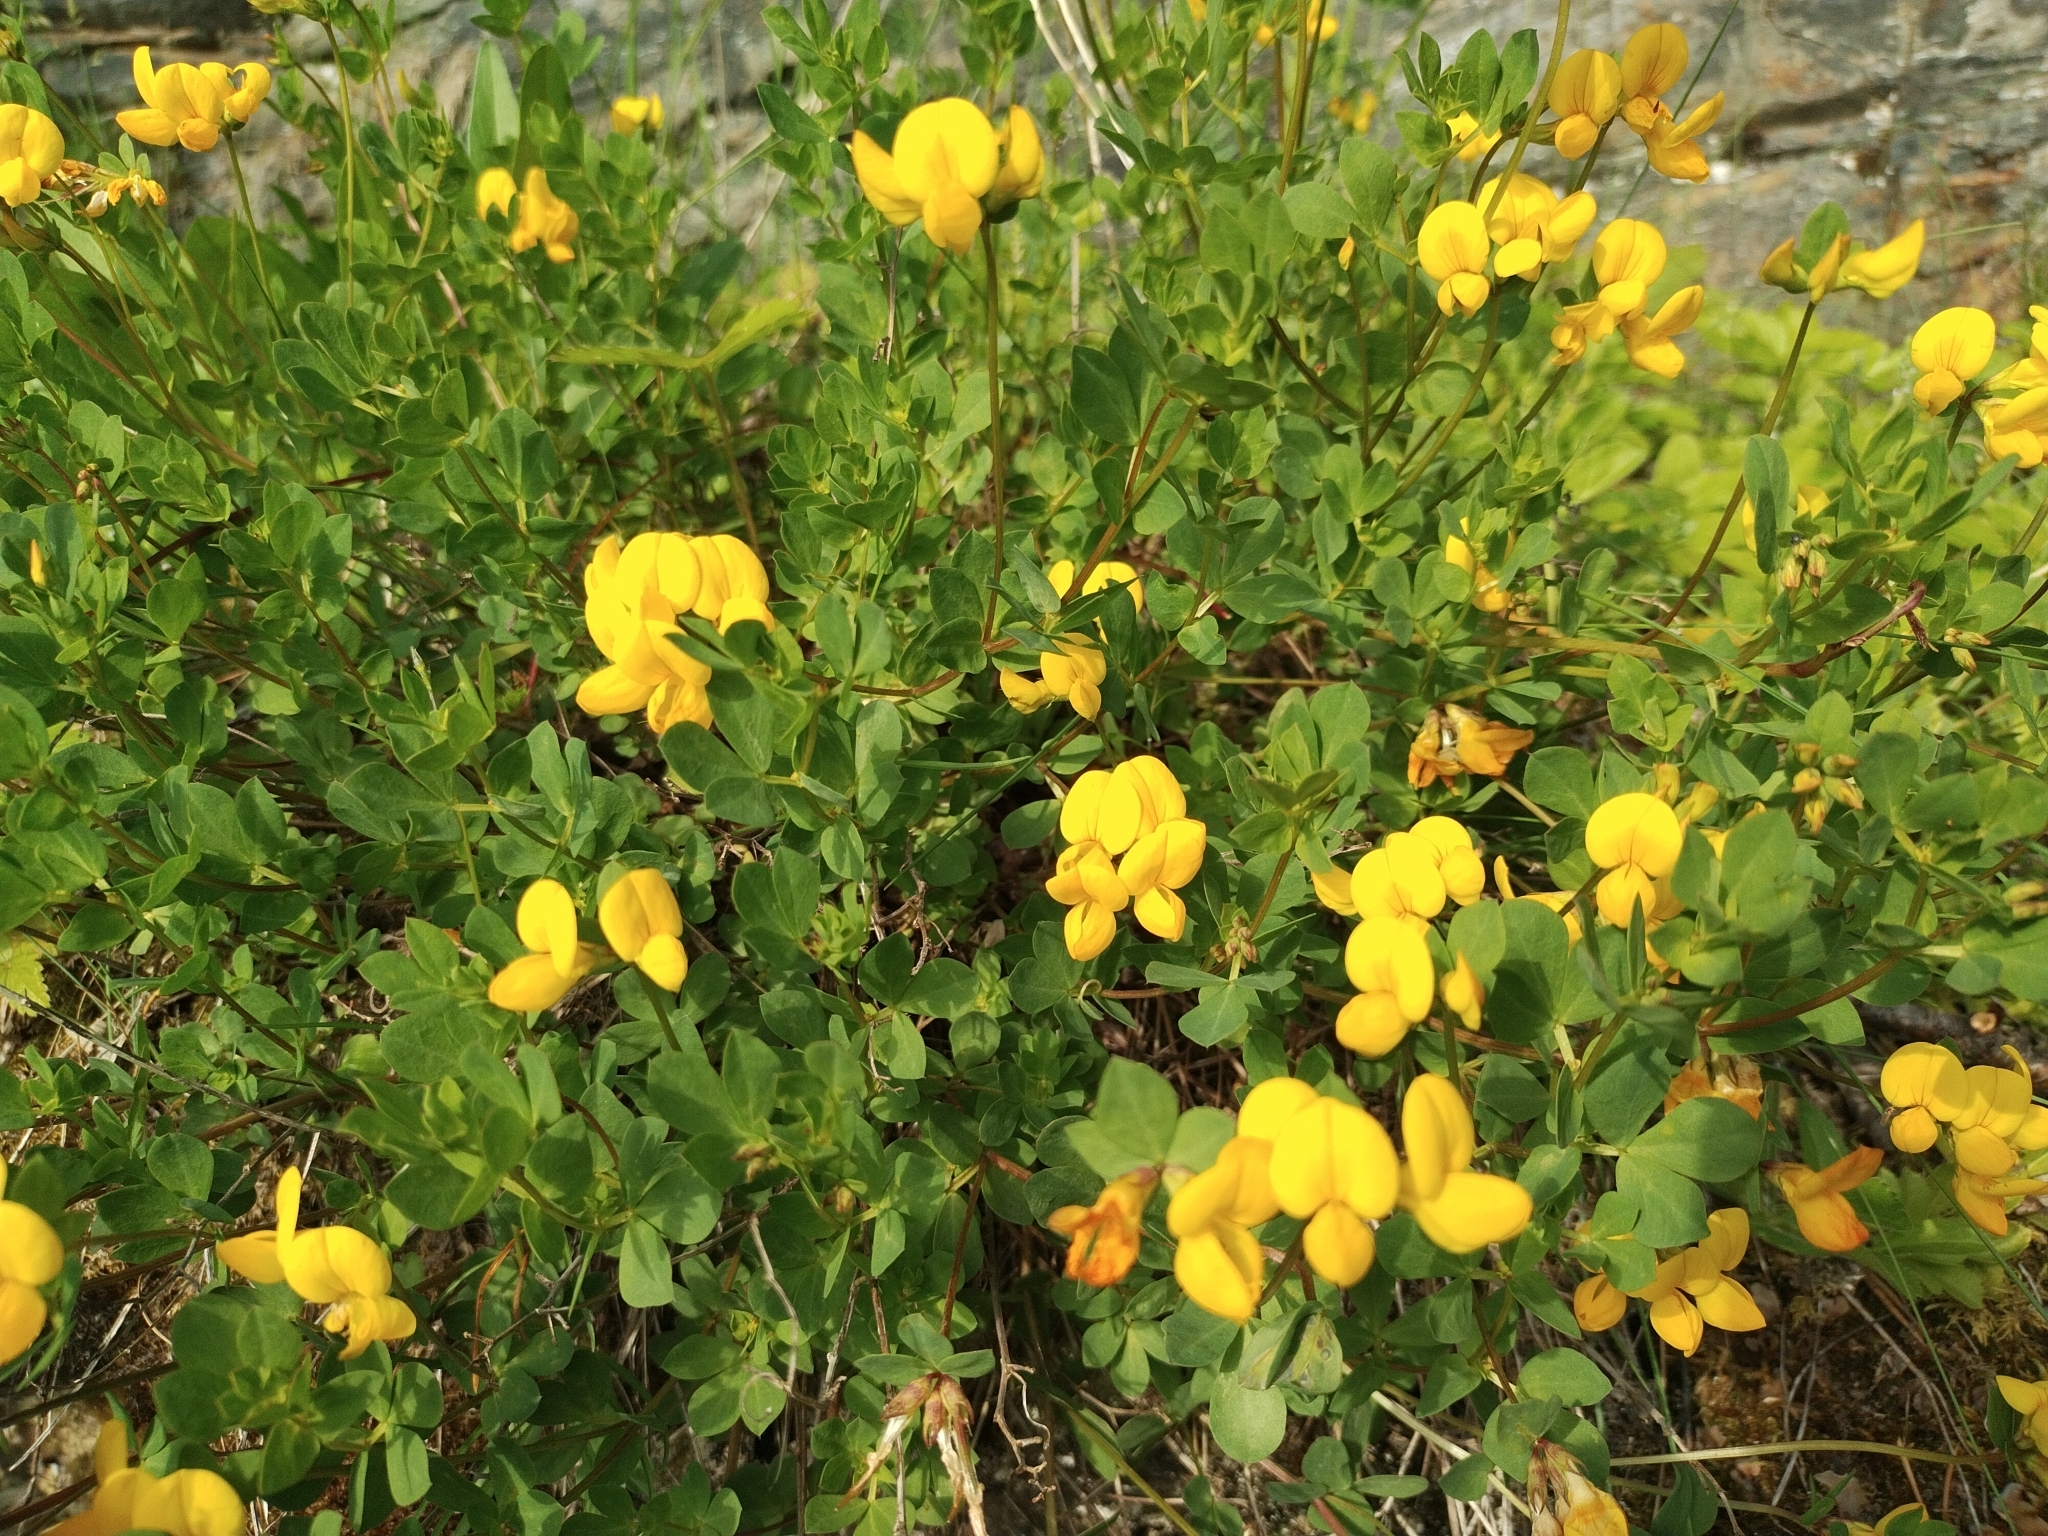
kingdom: Plantae
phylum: Tracheophyta
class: Magnoliopsida
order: Fabales
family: Fabaceae
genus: Lotus
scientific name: Lotus corniculatus
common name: Common bird's-foot-trefoil
